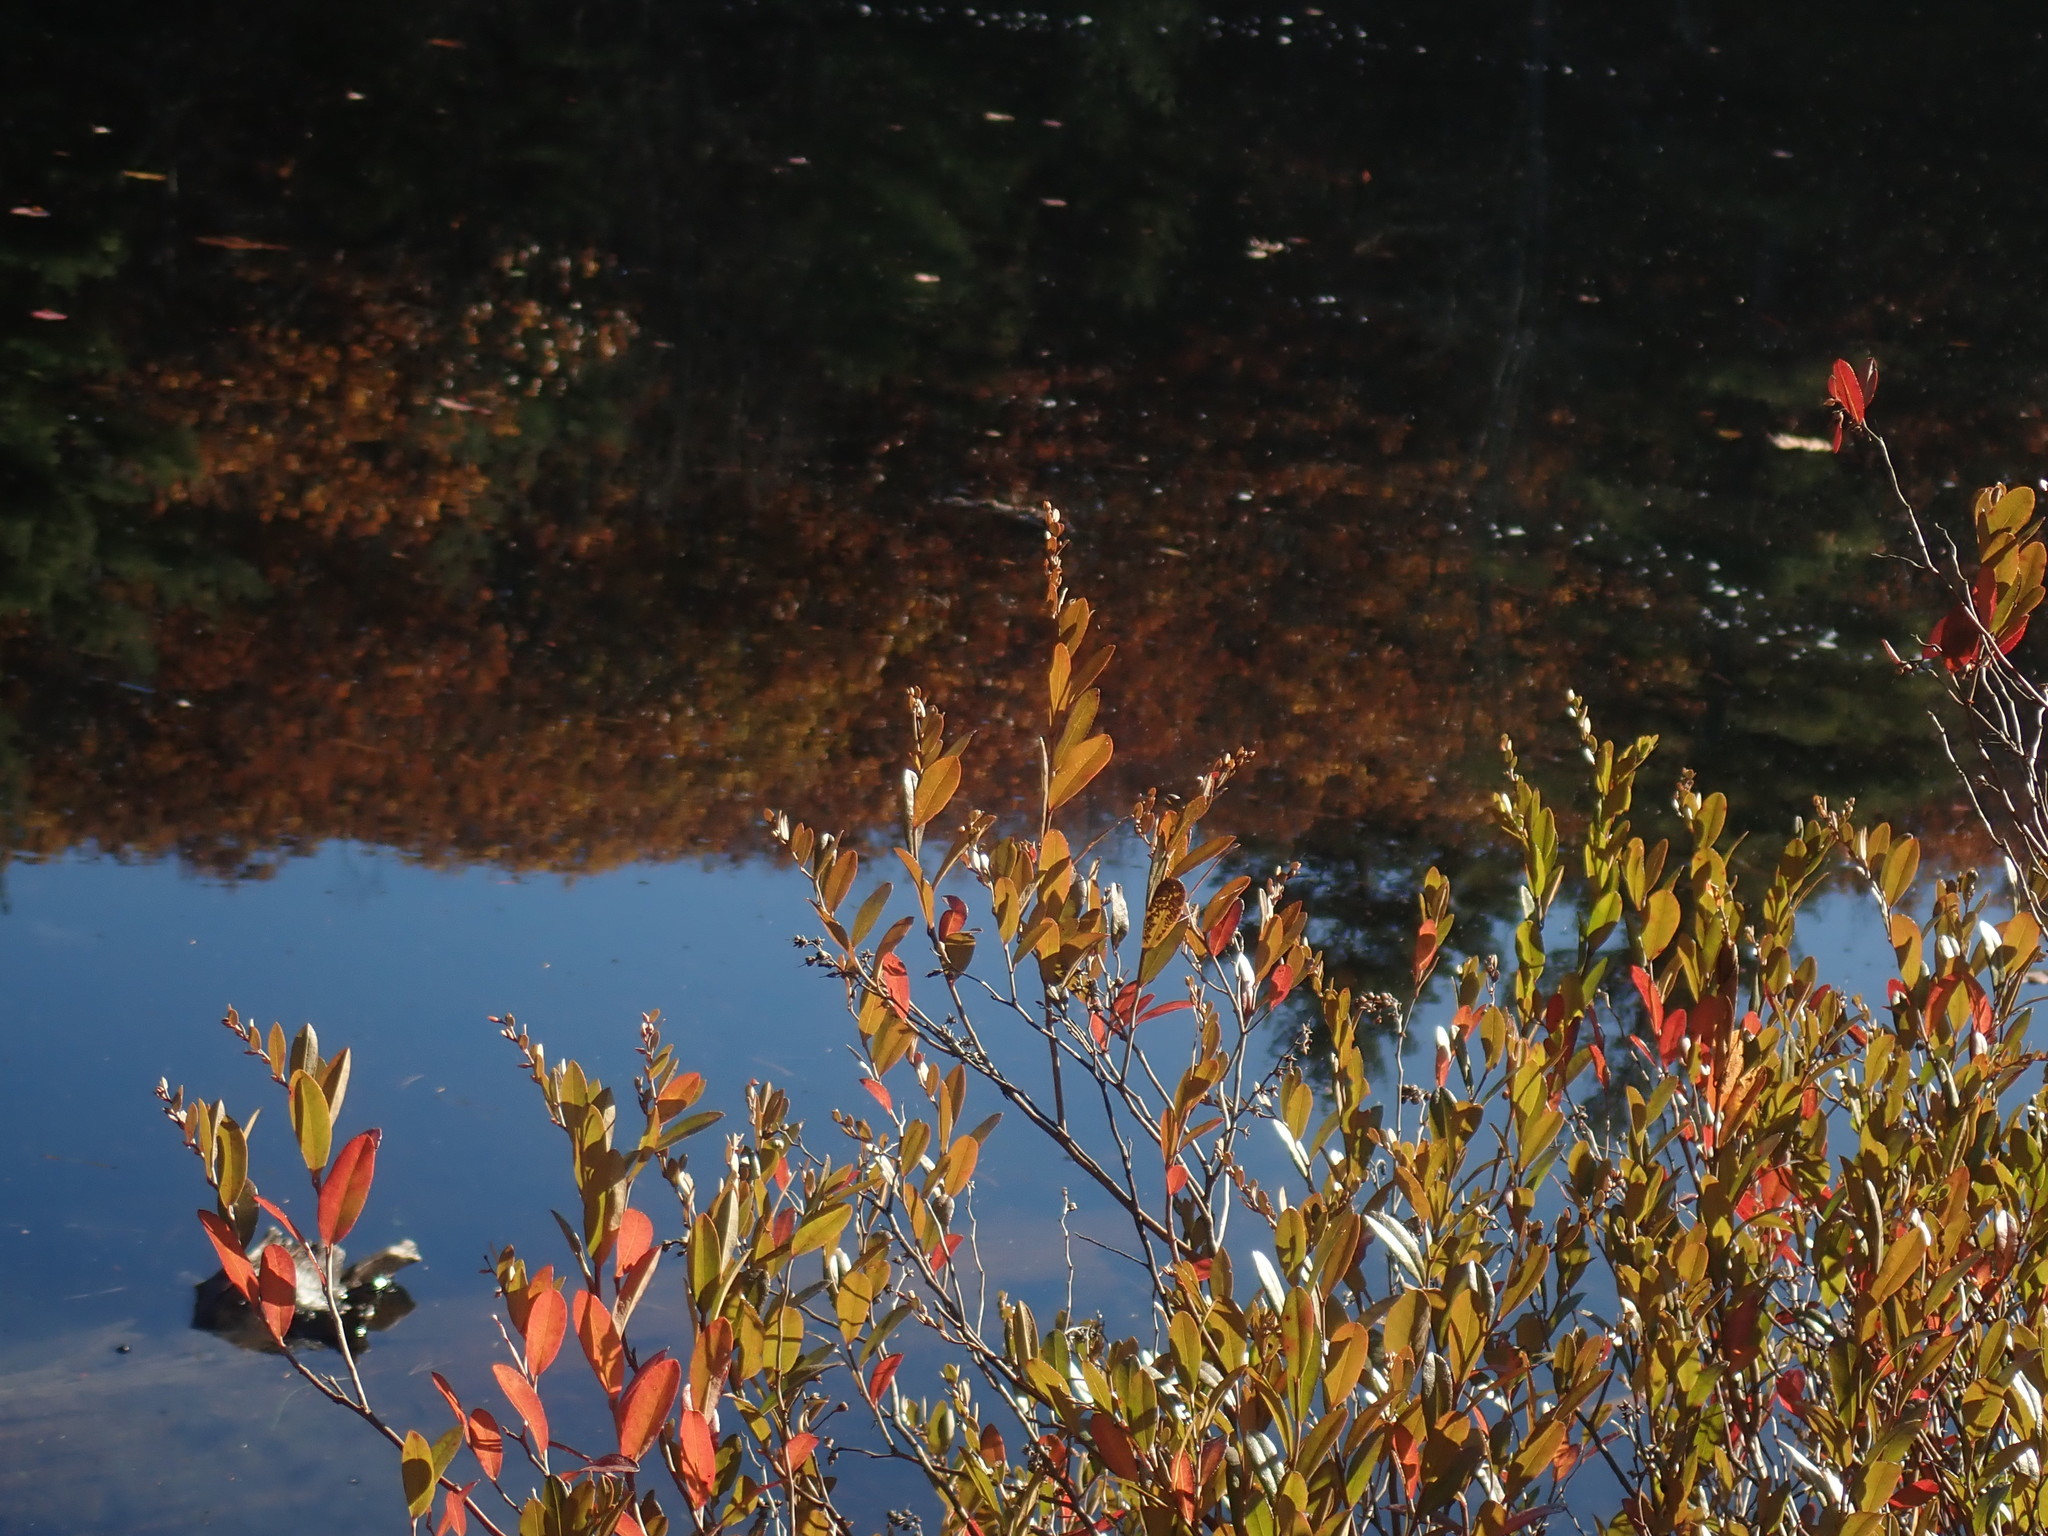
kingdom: Plantae
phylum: Tracheophyta
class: Magnoliopsida
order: Ericales
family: Ericaceae
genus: Chamaedaphne
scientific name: Chamaedaphne calyculata
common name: Leatherleaf
